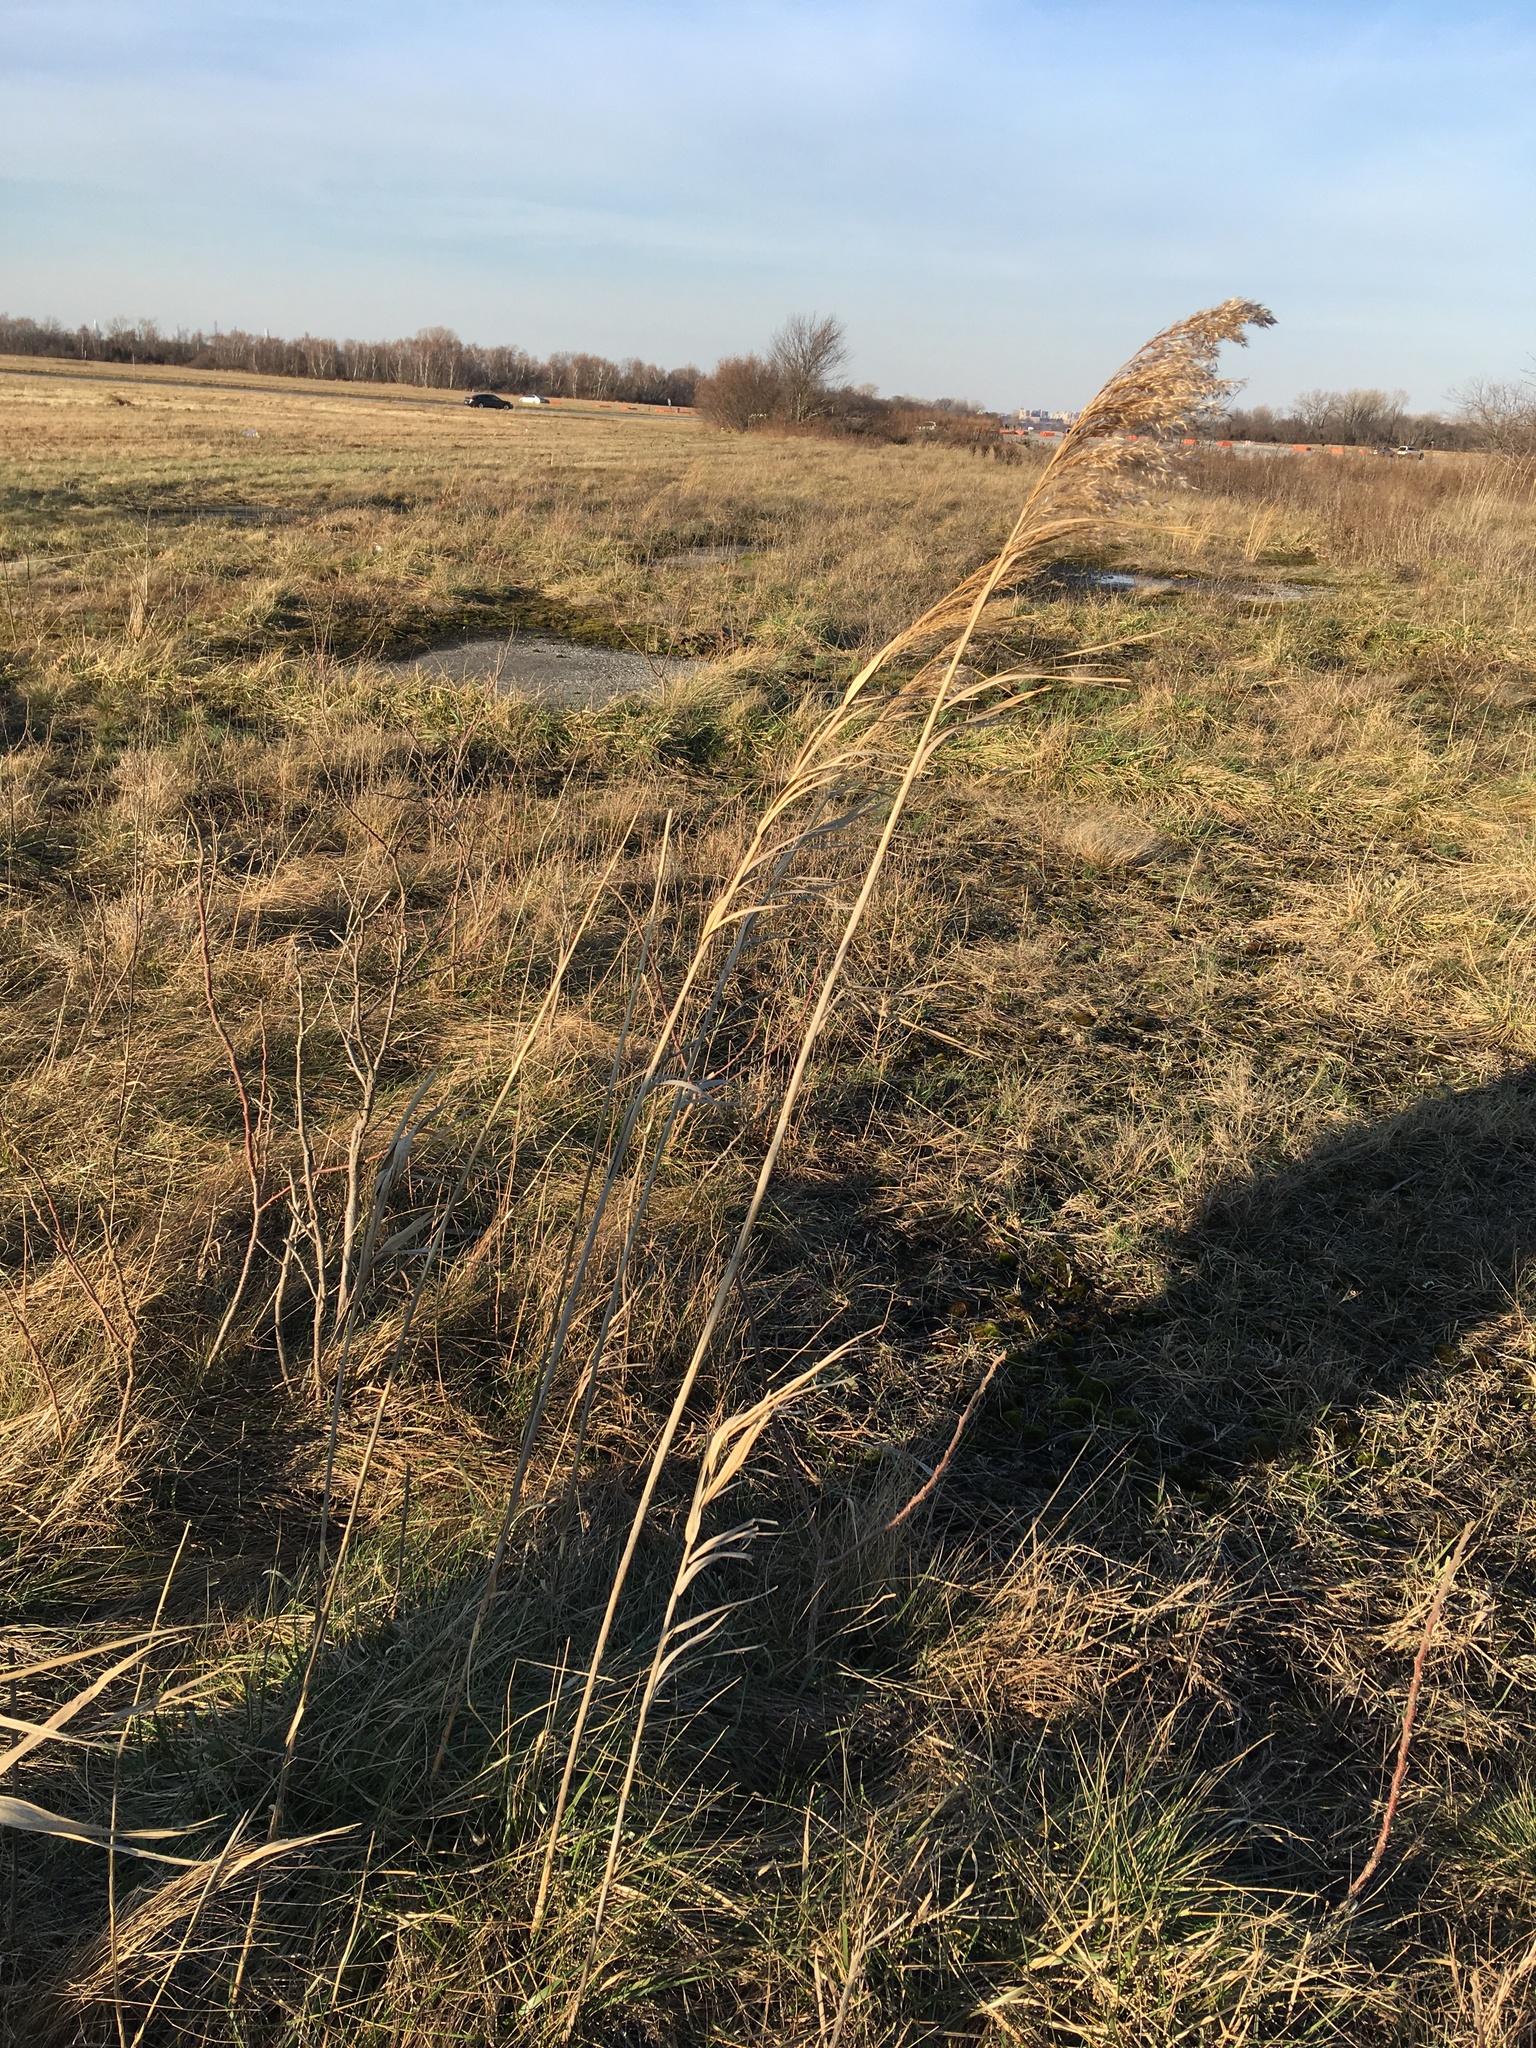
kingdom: Plantae
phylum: Tracheophyta
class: Liliopsida
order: Poales
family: Poaceae
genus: Phragmites
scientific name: Phragmites australis
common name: Common reed
